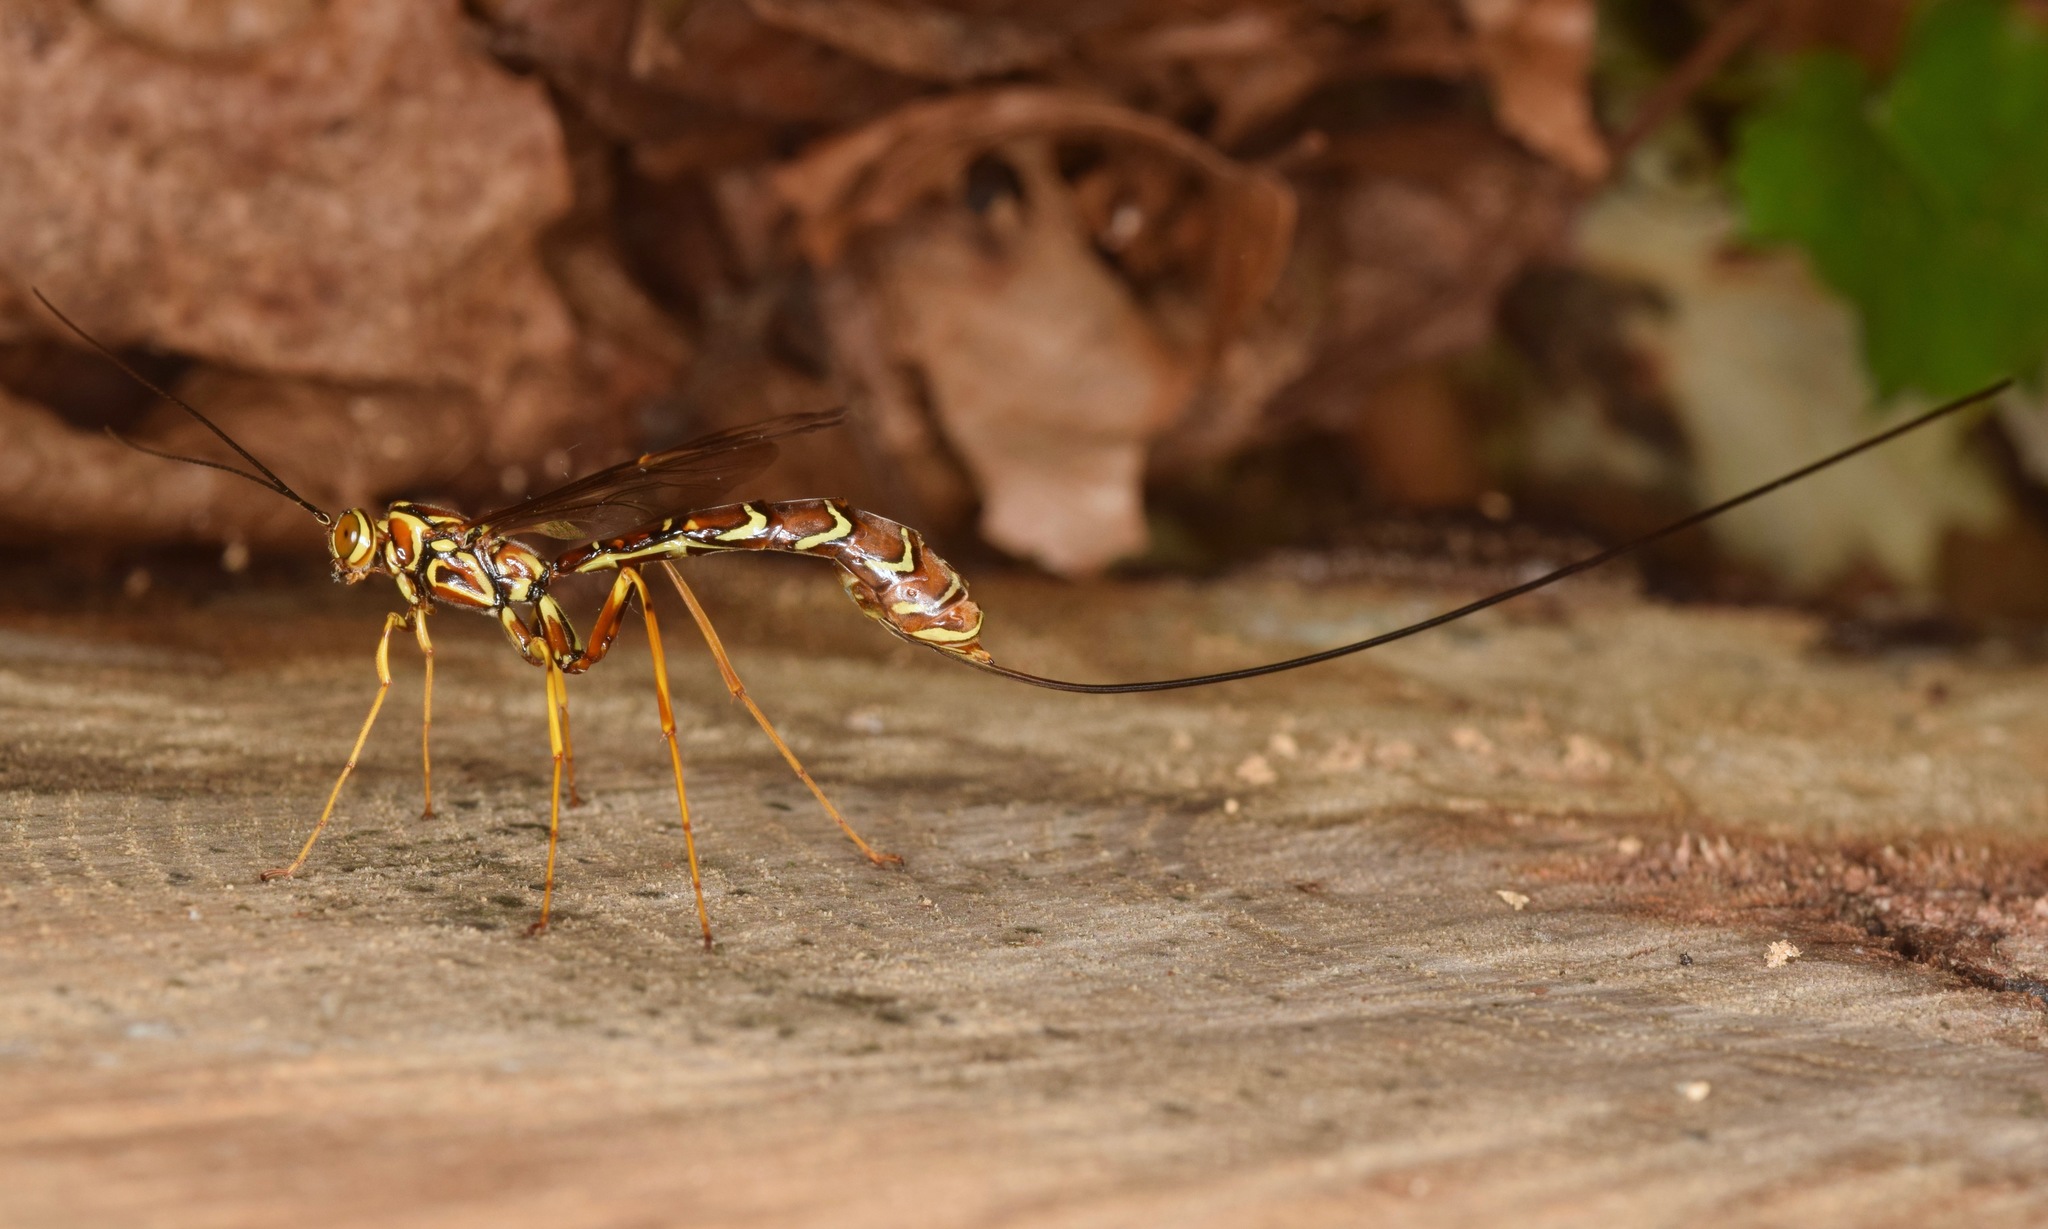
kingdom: Animalia
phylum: Arthropoda
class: Insecta
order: Hymenoptera
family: Ichneumonidae
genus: Megarhyssa
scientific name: Megarhyssa macrura
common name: Long-tailed giant ichneumonid wasp
